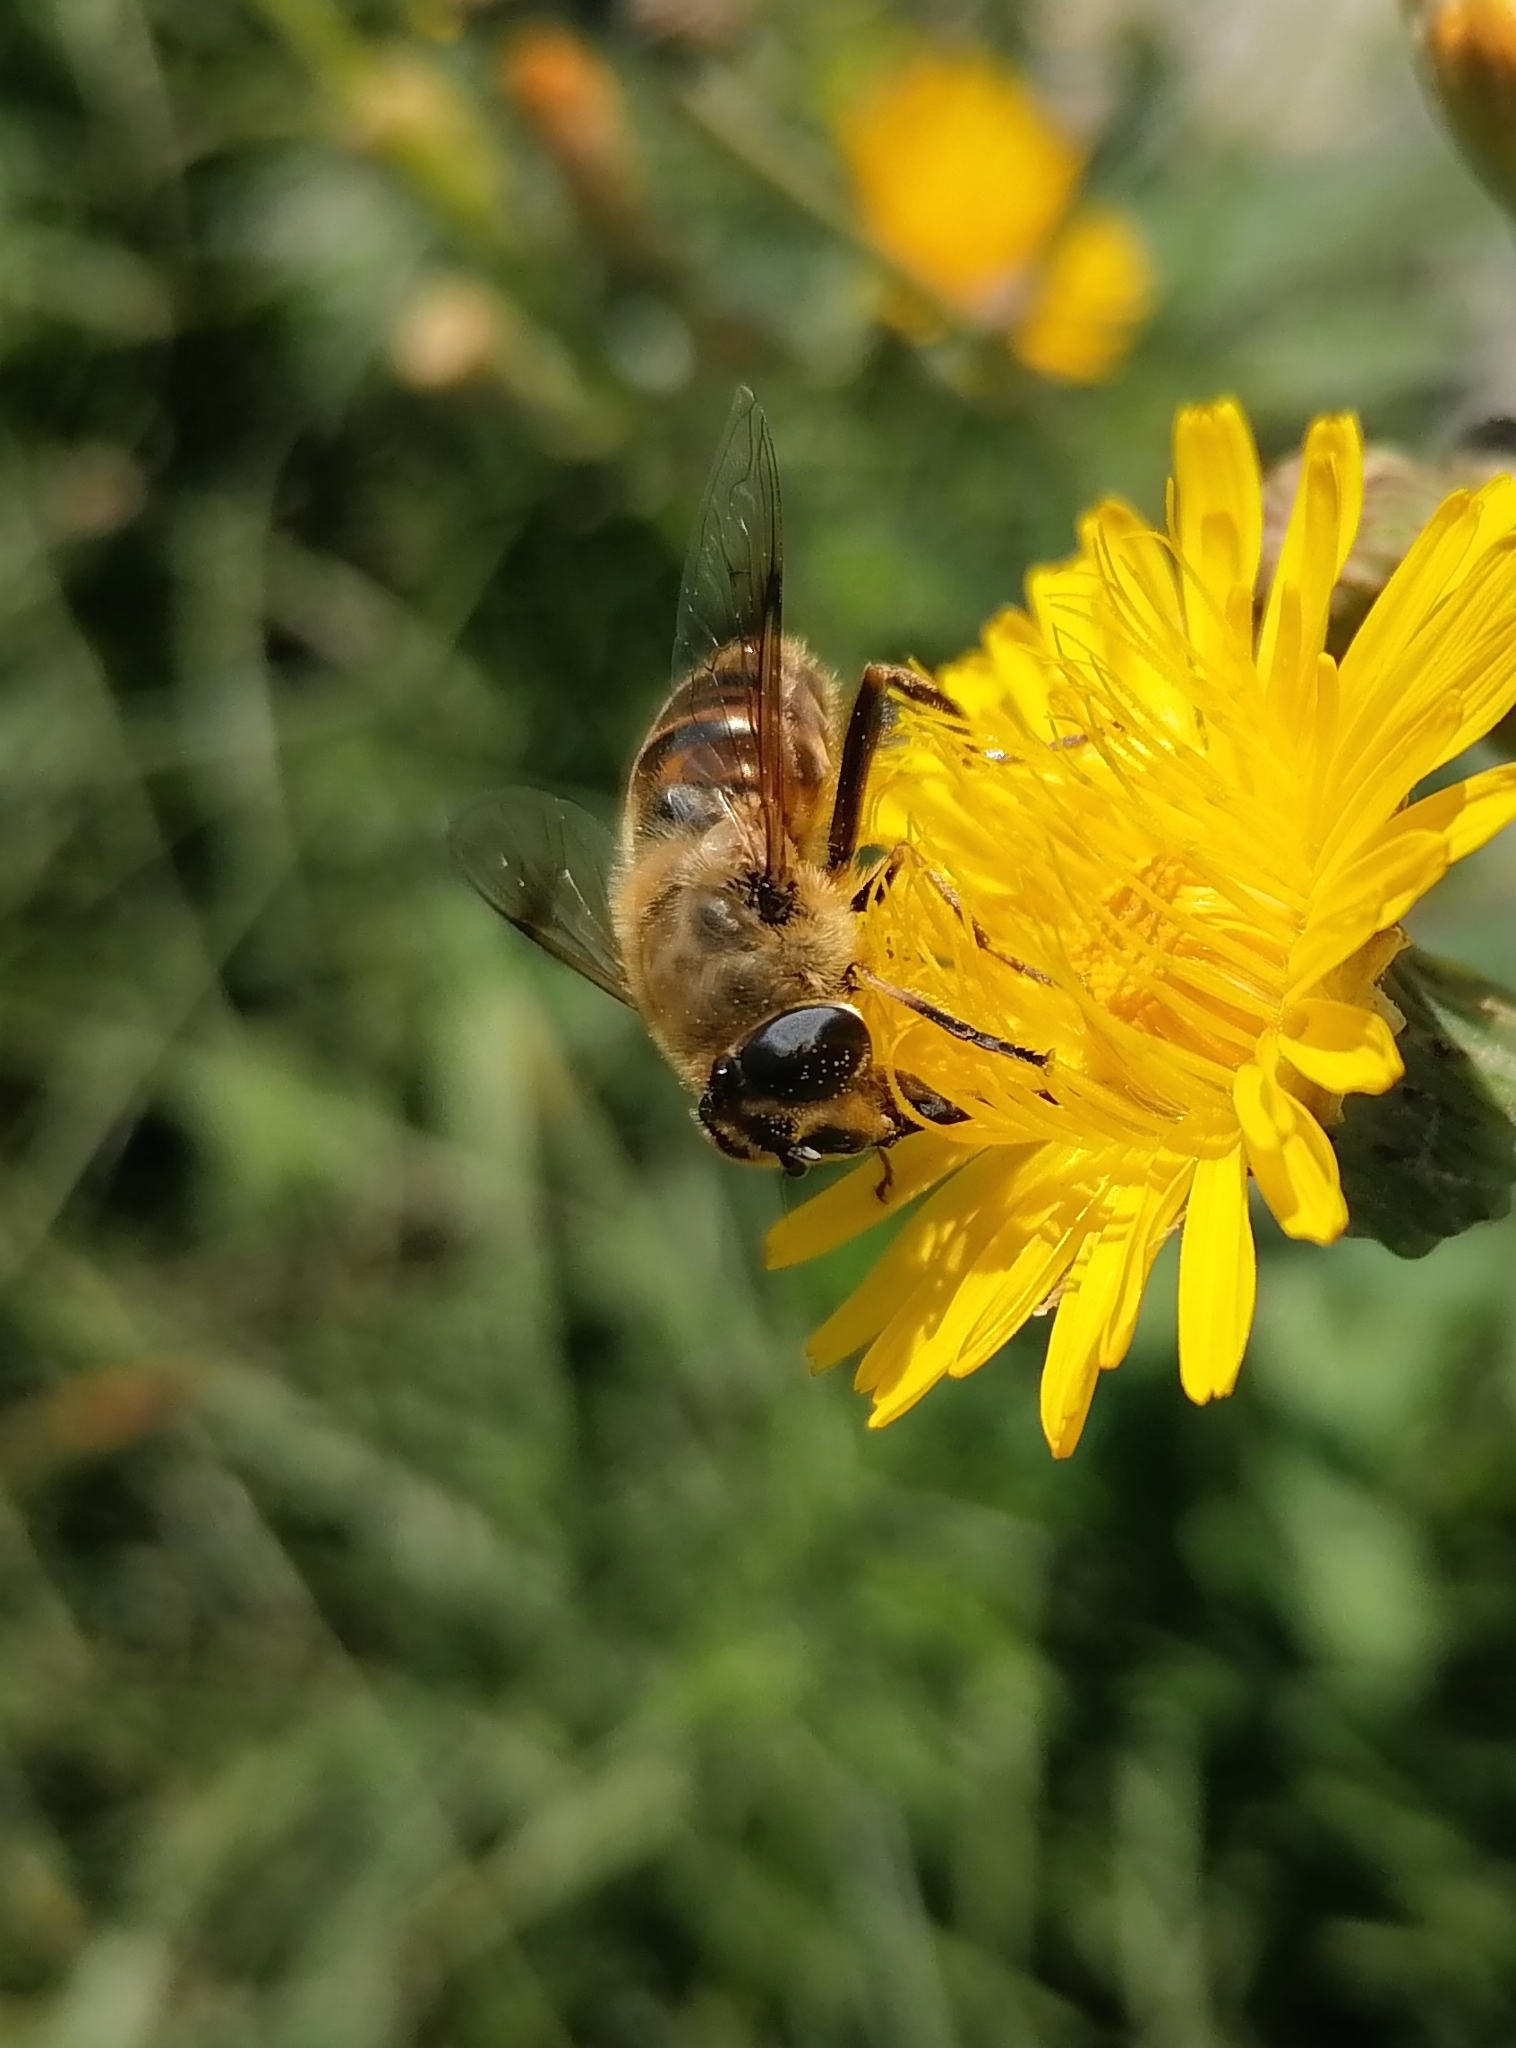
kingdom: Animalia
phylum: Arthropoda
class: Insecta
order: Diptera
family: Syrphidae
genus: Eristalis
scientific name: Eristalis tenax
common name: Drone fly
